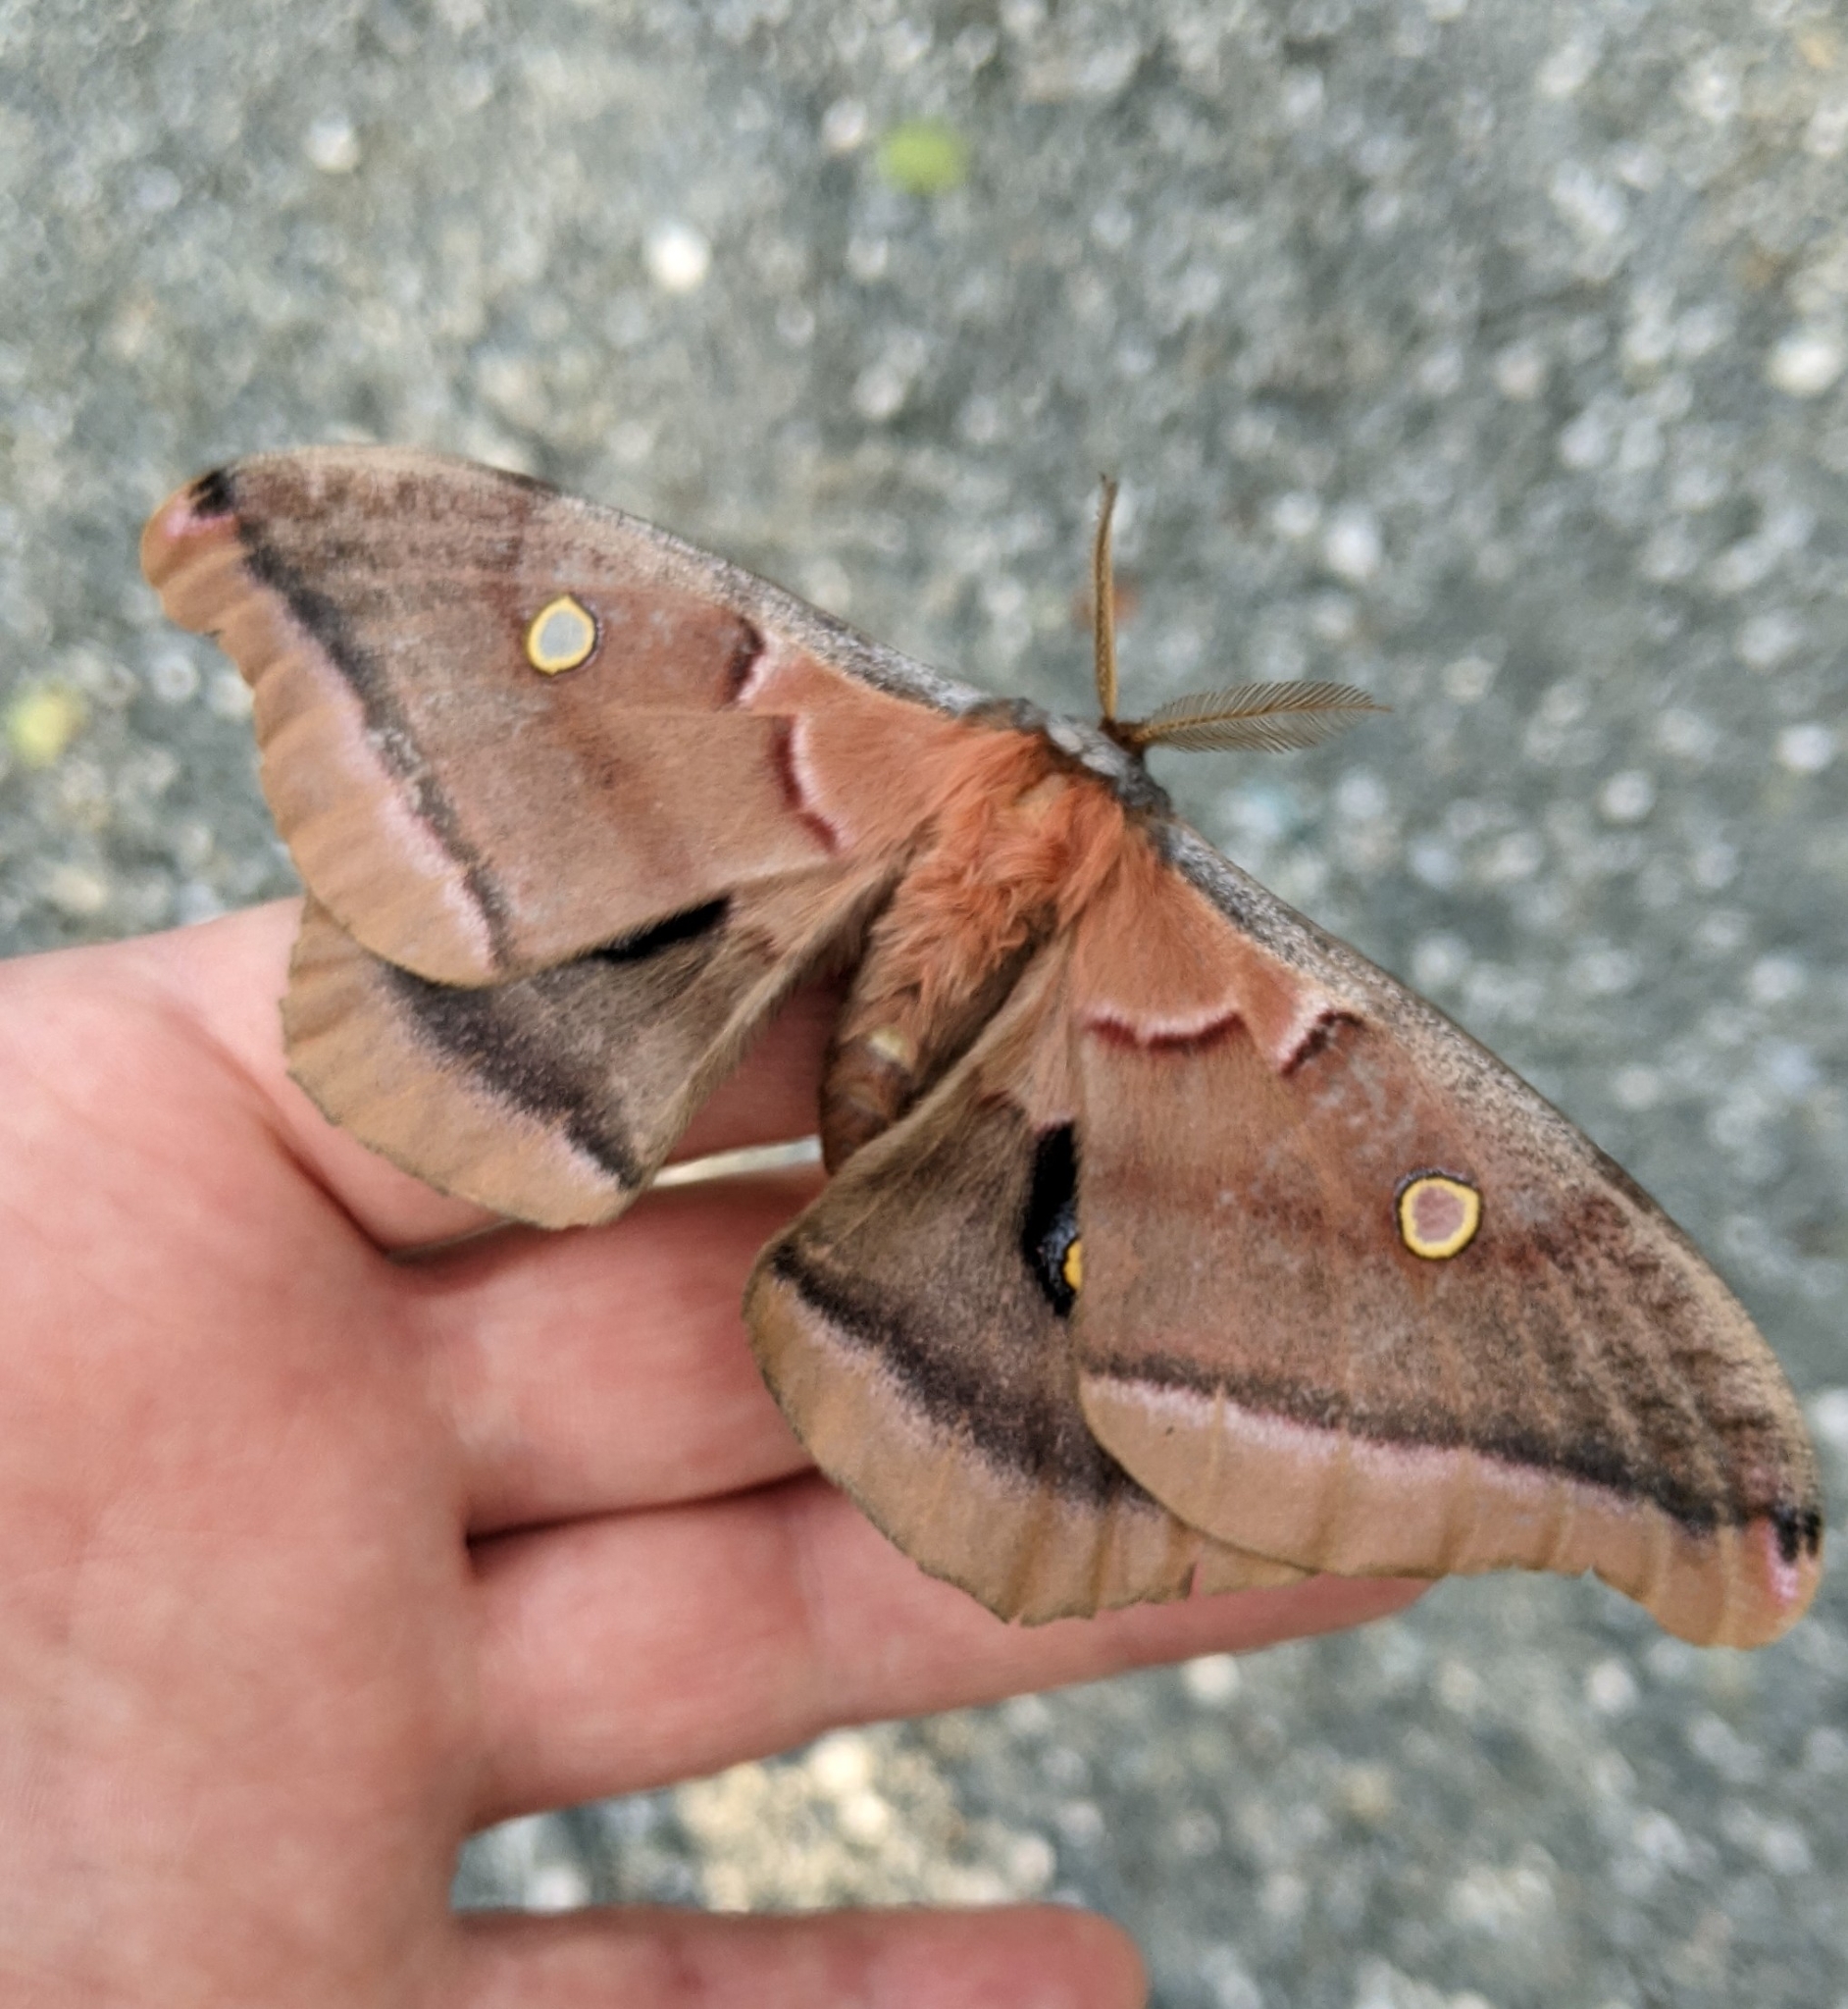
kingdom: Animalia
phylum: Arthropoda
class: Insecta
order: Lepidoptera
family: Saturniidae
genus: Antheraea
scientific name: Antheraea polyphemus
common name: Polyphemus moth
